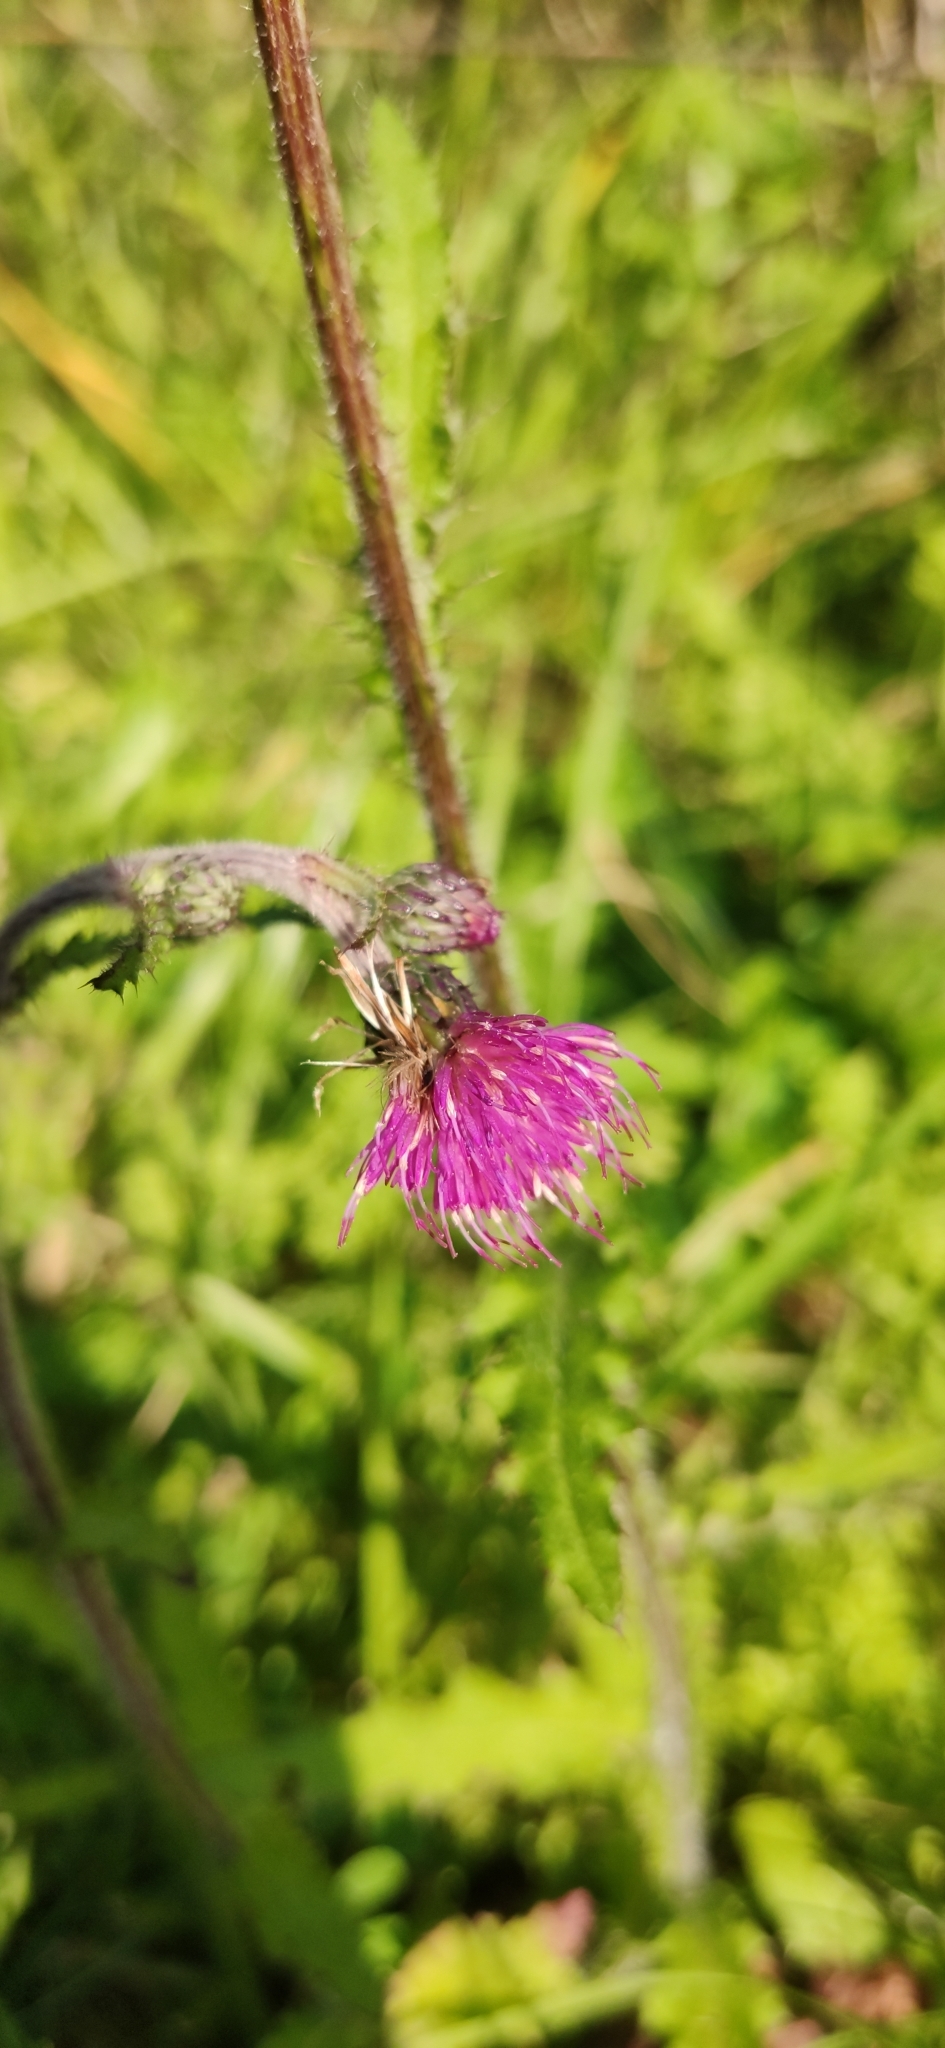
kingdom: Plantae
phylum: Tracheophyta
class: Magnoliopsida
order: Asterales
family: Asteraceae
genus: Cirsium
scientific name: Cirsium palustre
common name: Marsh thistle
